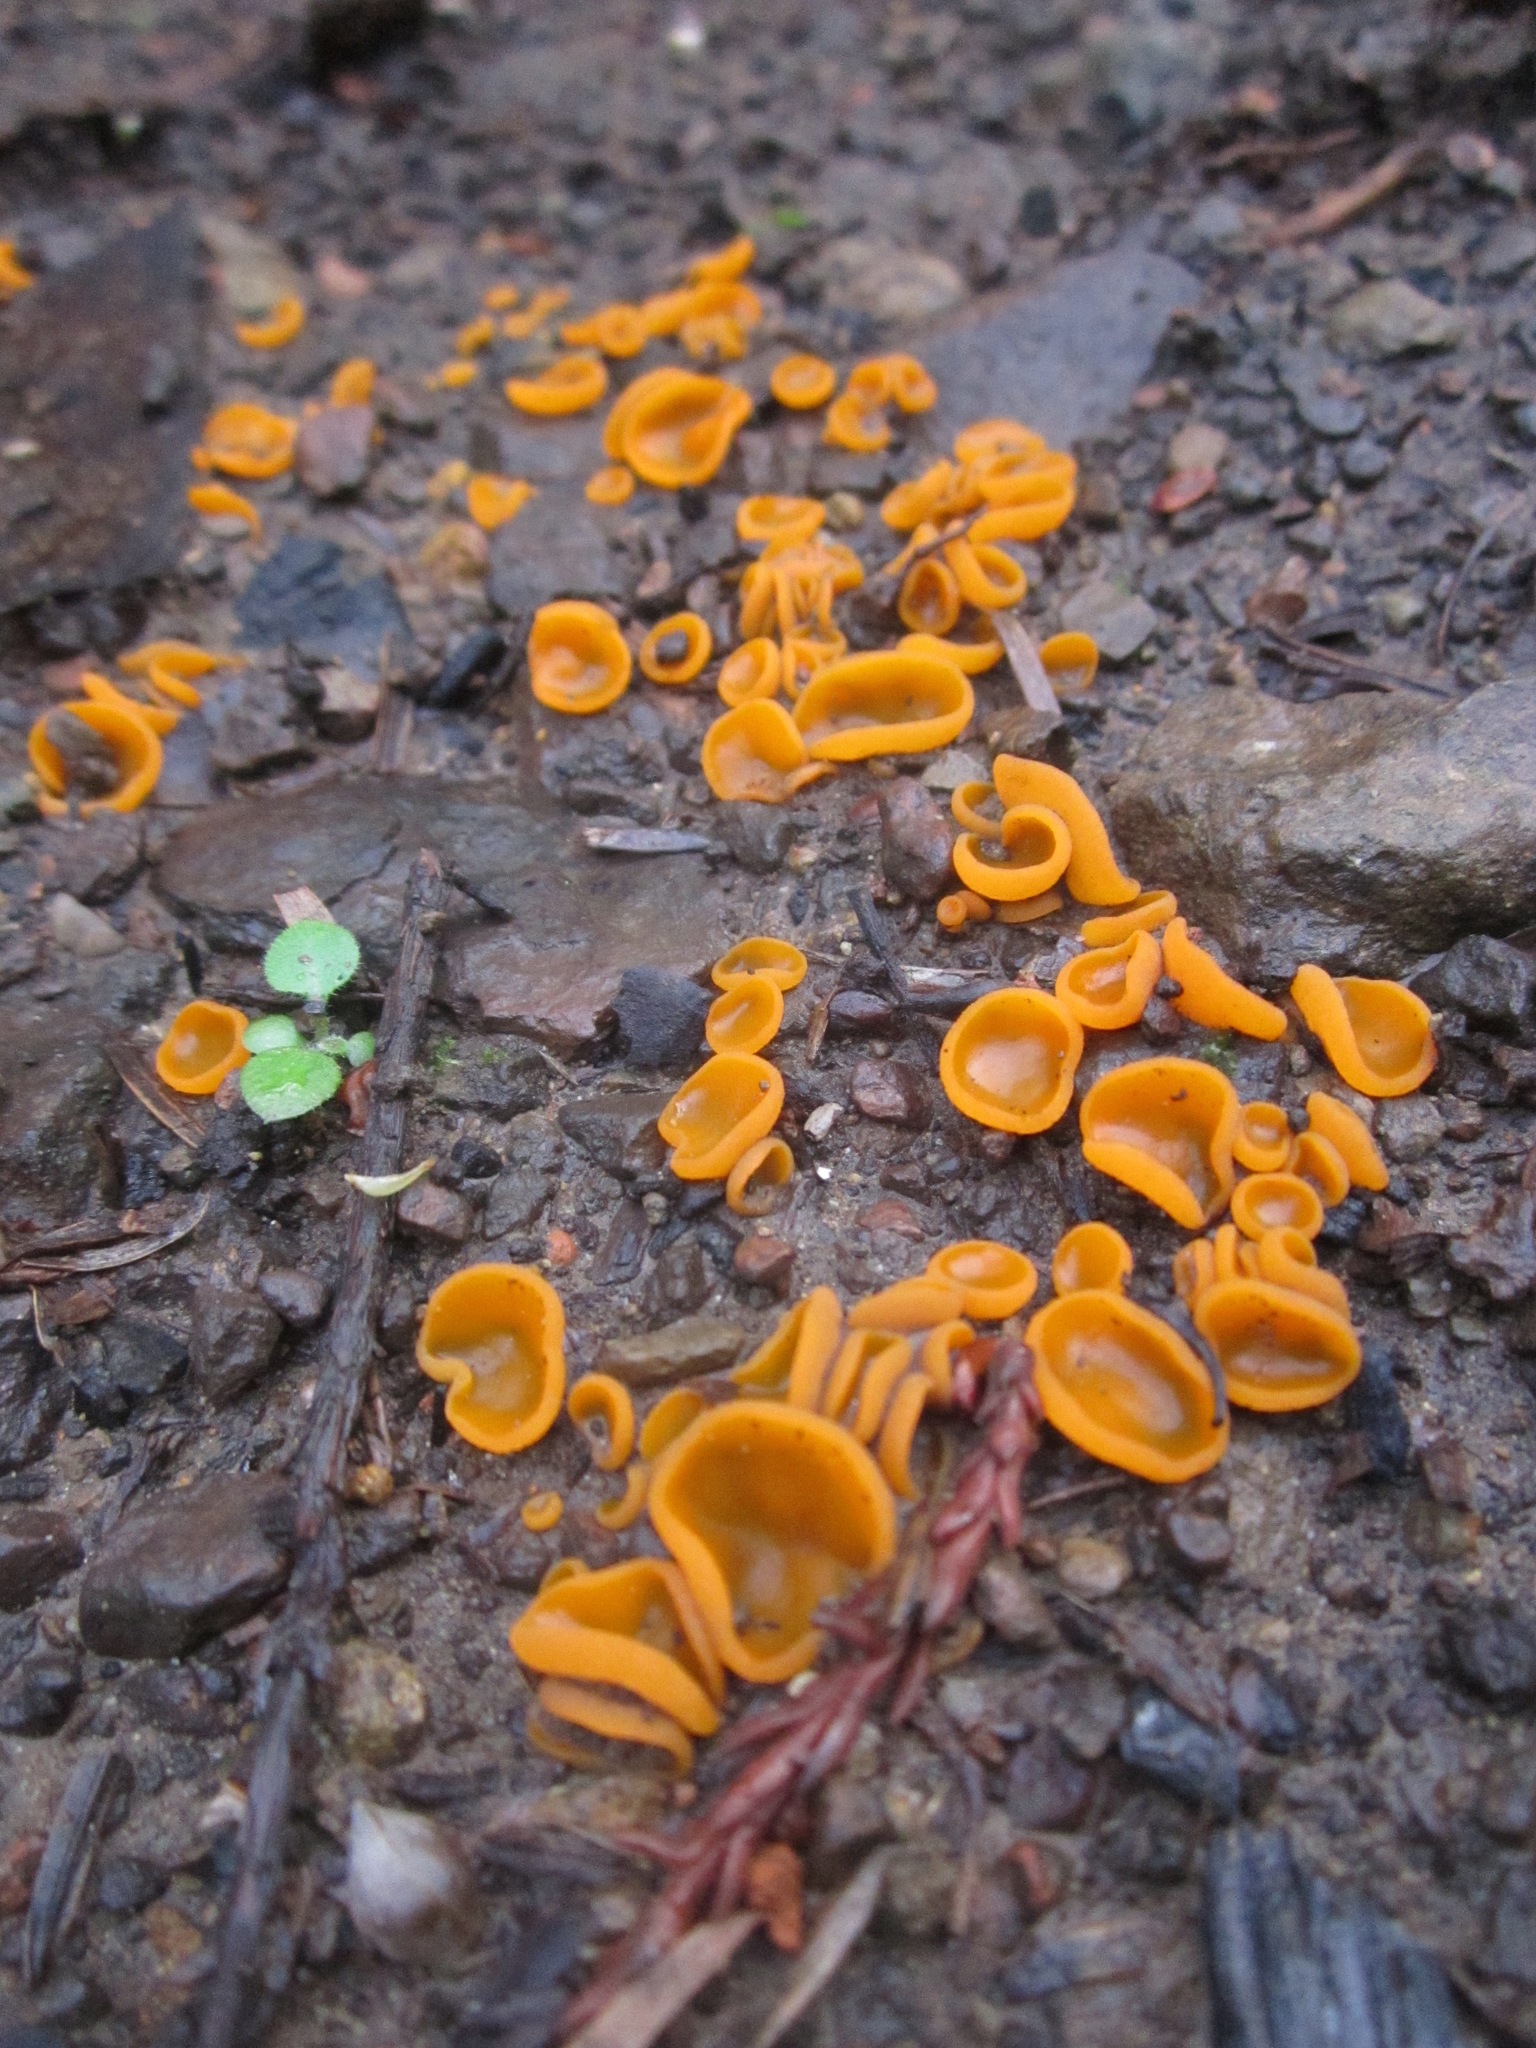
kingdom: Fungi
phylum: Ascomycota
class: Pezizomycetes
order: Pezizales
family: Pyronemataceae
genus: Aleuria
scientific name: Aleuria aurantia
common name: Orange peel fungus
